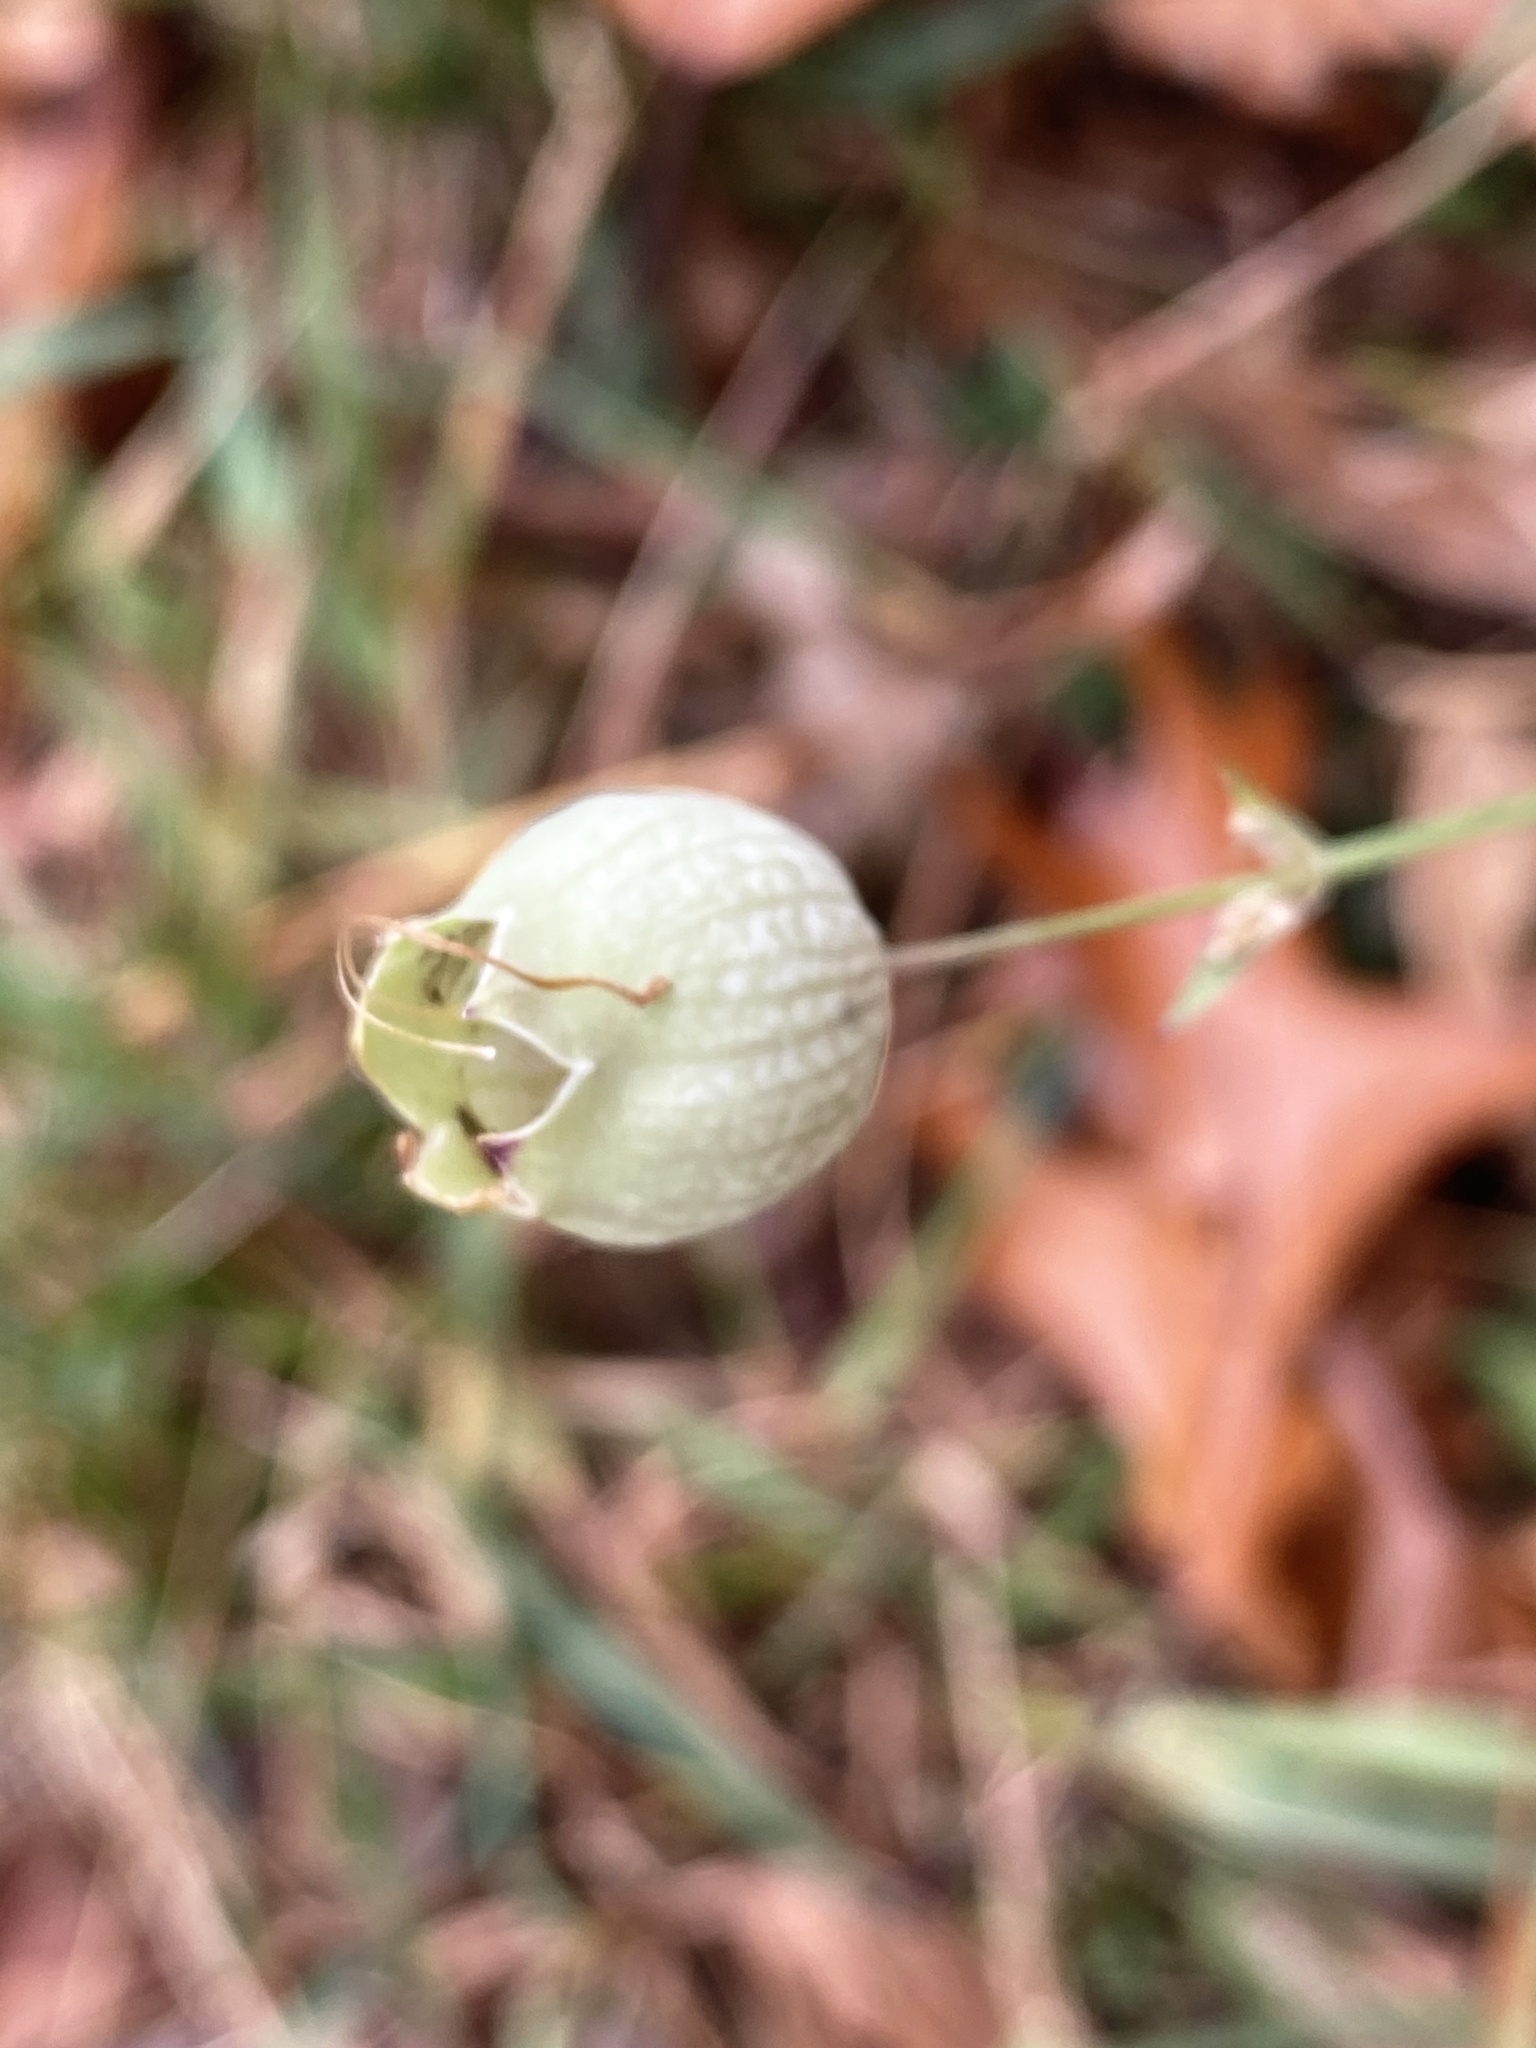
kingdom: Plantae
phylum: Tracheophyta
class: Magnoliopsida
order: Caryophyllales
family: Caryophyllaceae
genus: Silene
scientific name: Silene vulgaris
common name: Bladder campion
